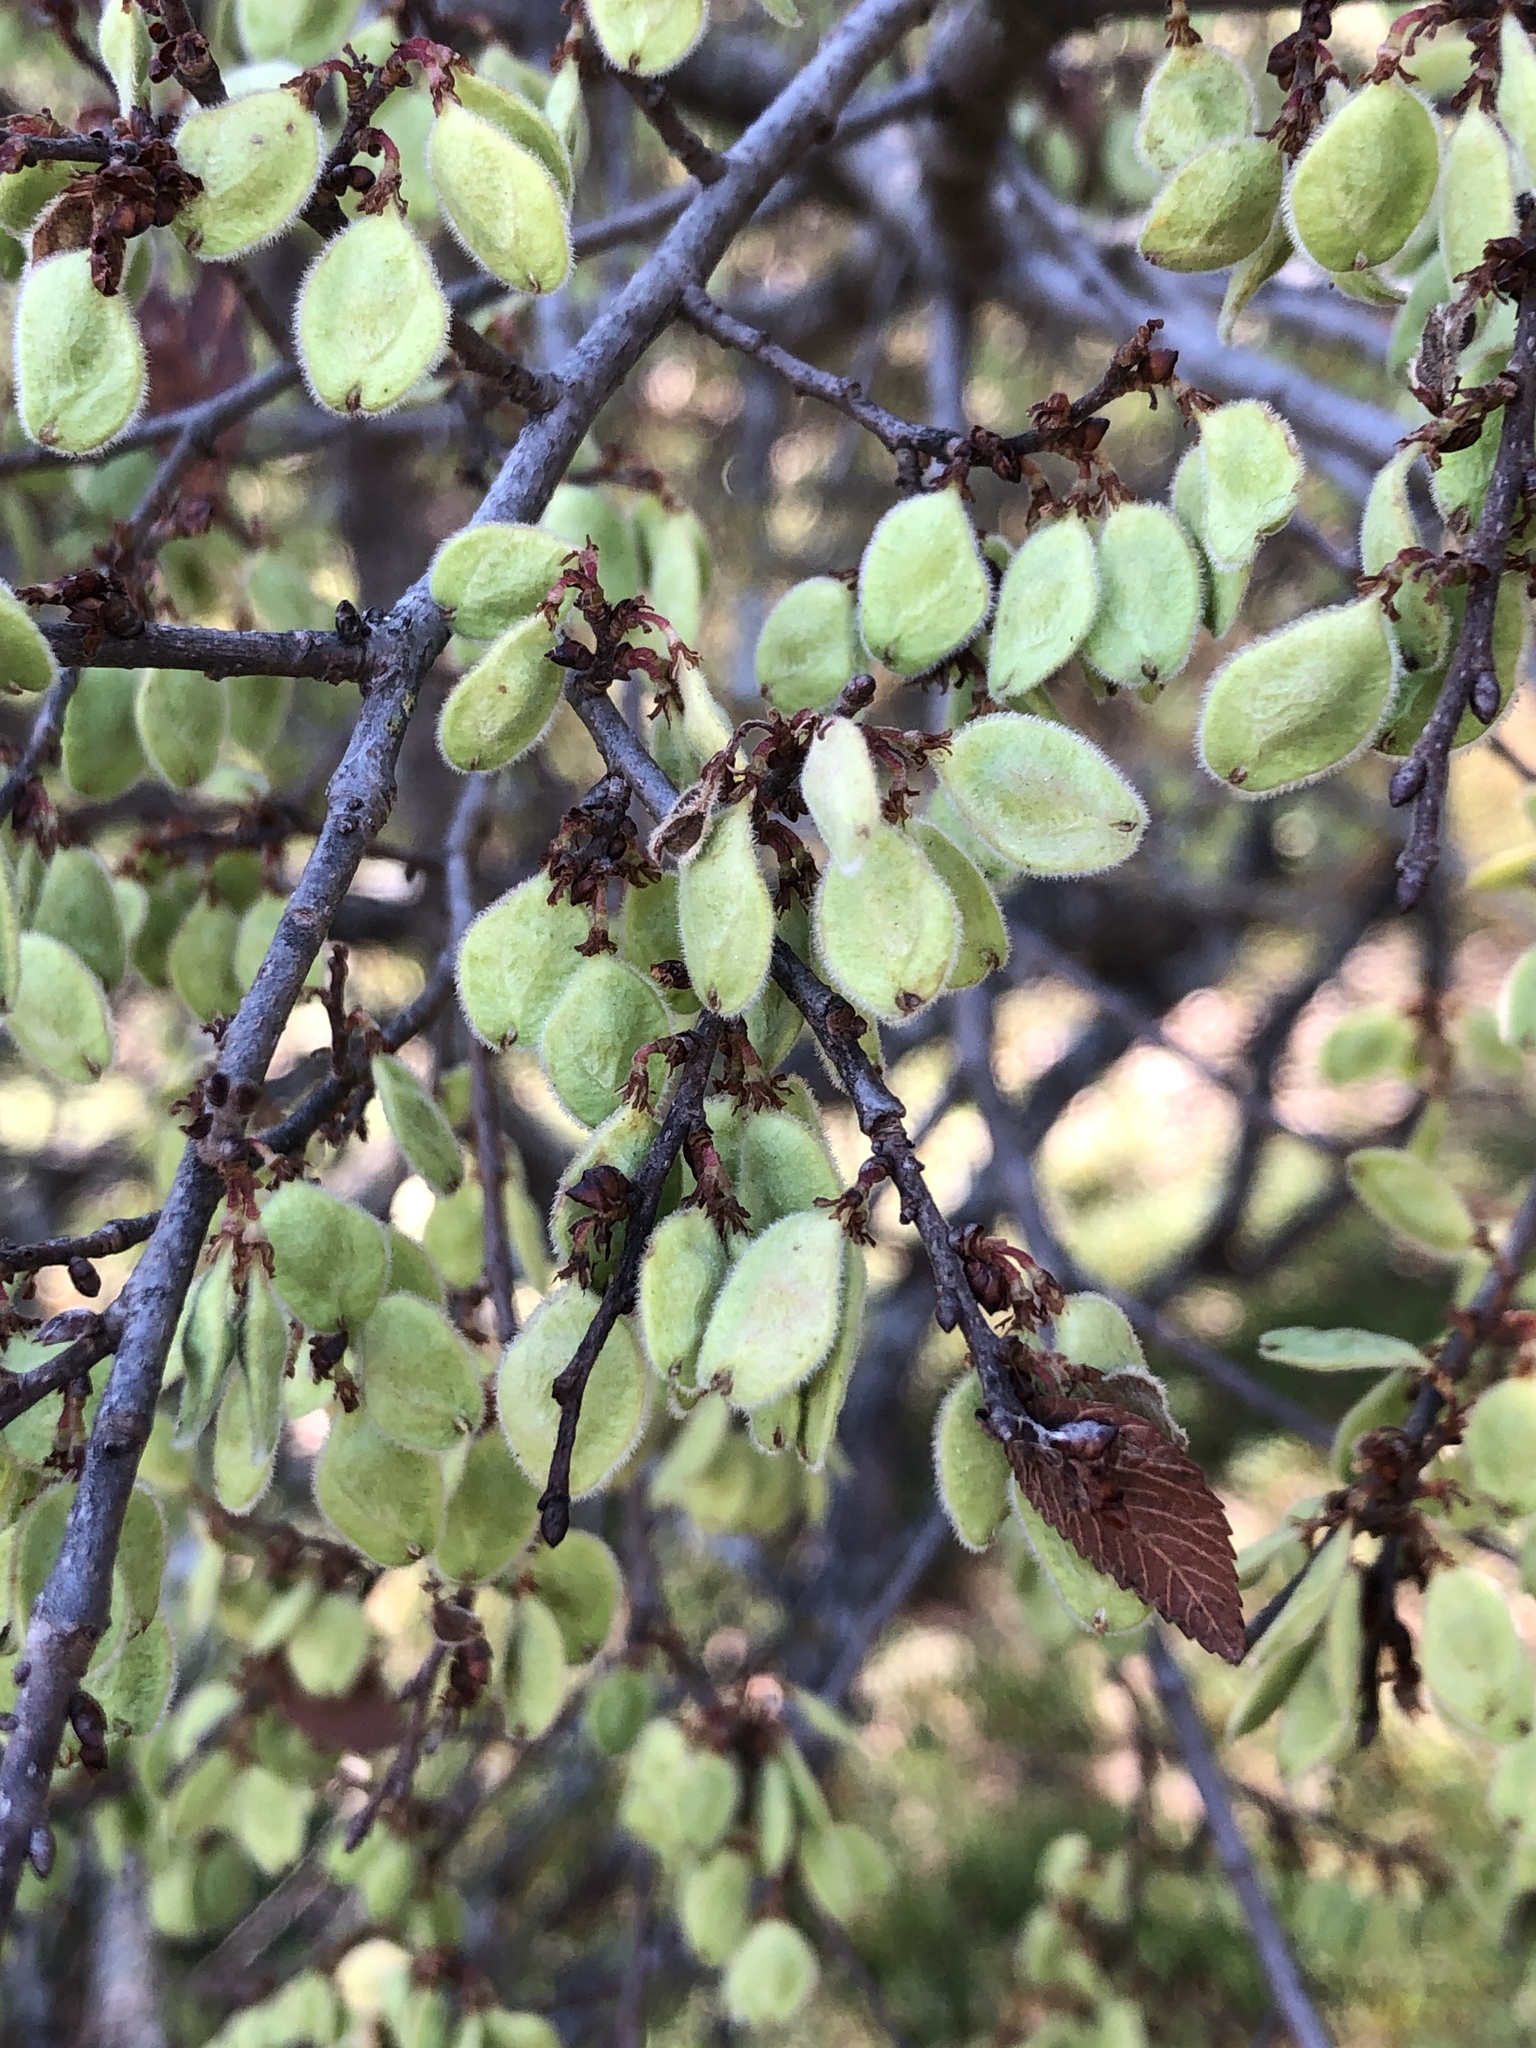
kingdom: Plantae
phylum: Tracheophyta
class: Magnoliopsida
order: Rosales
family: Ulmaceae
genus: Ulmus
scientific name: Ulmus crassifolia
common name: Basket elm
